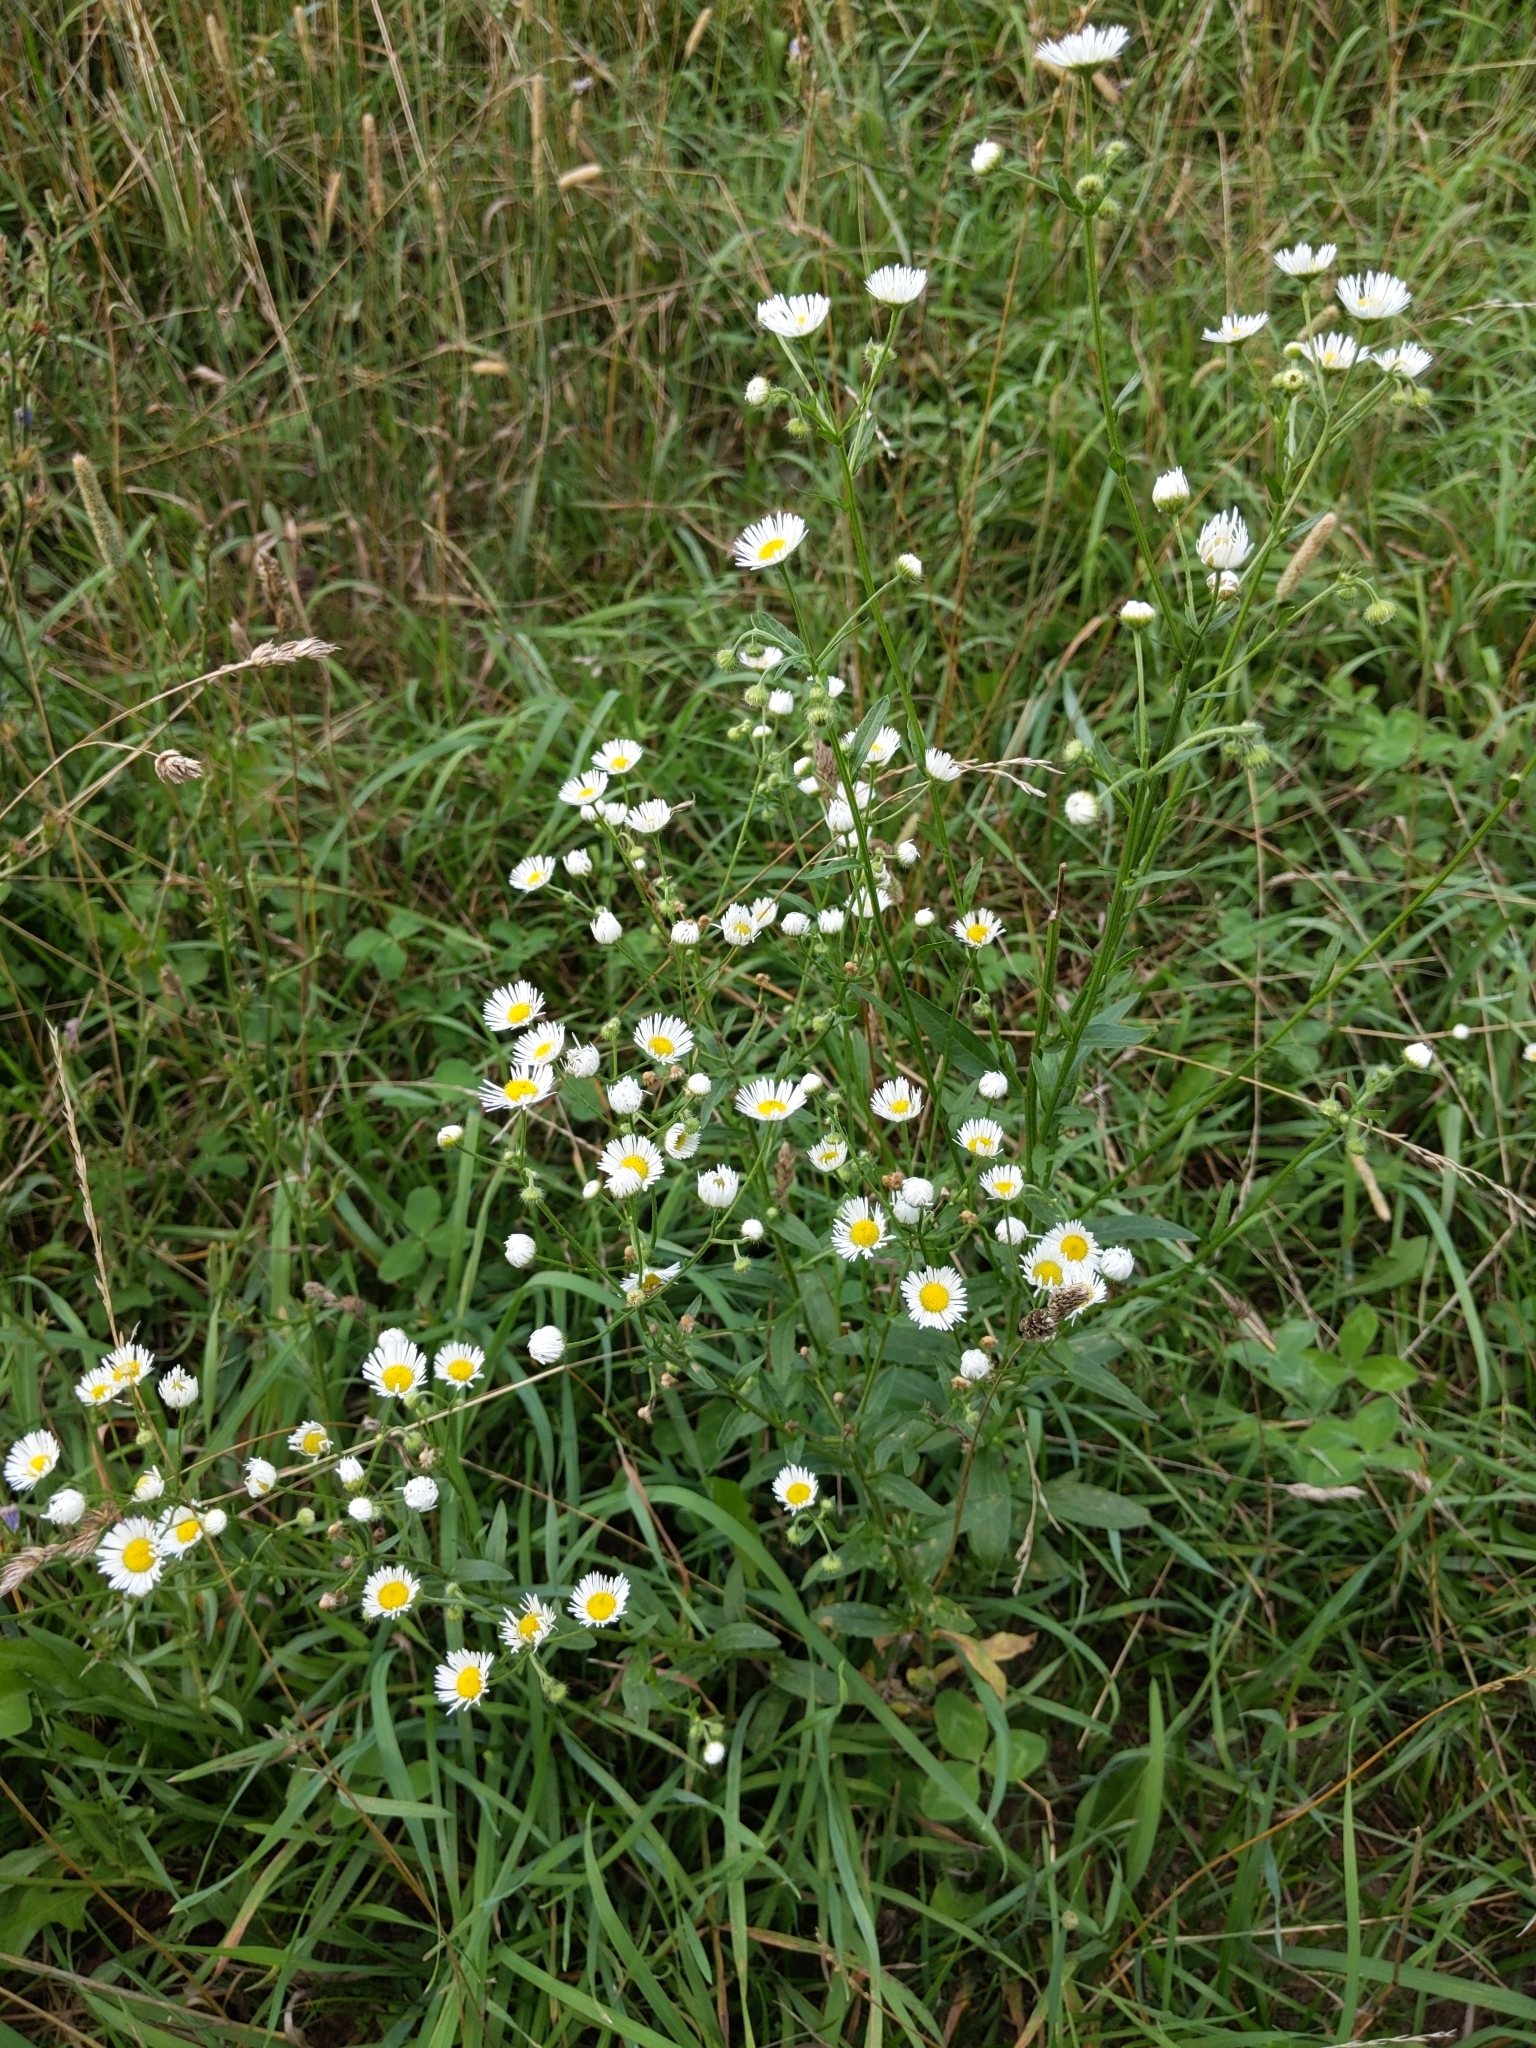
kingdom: Plantae
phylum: Tracheophyta
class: Magnoliopsida
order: Asterales
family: Asteraceae
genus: Erigeron
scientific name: Erigeron strigosus
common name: Common eastern fleabane
